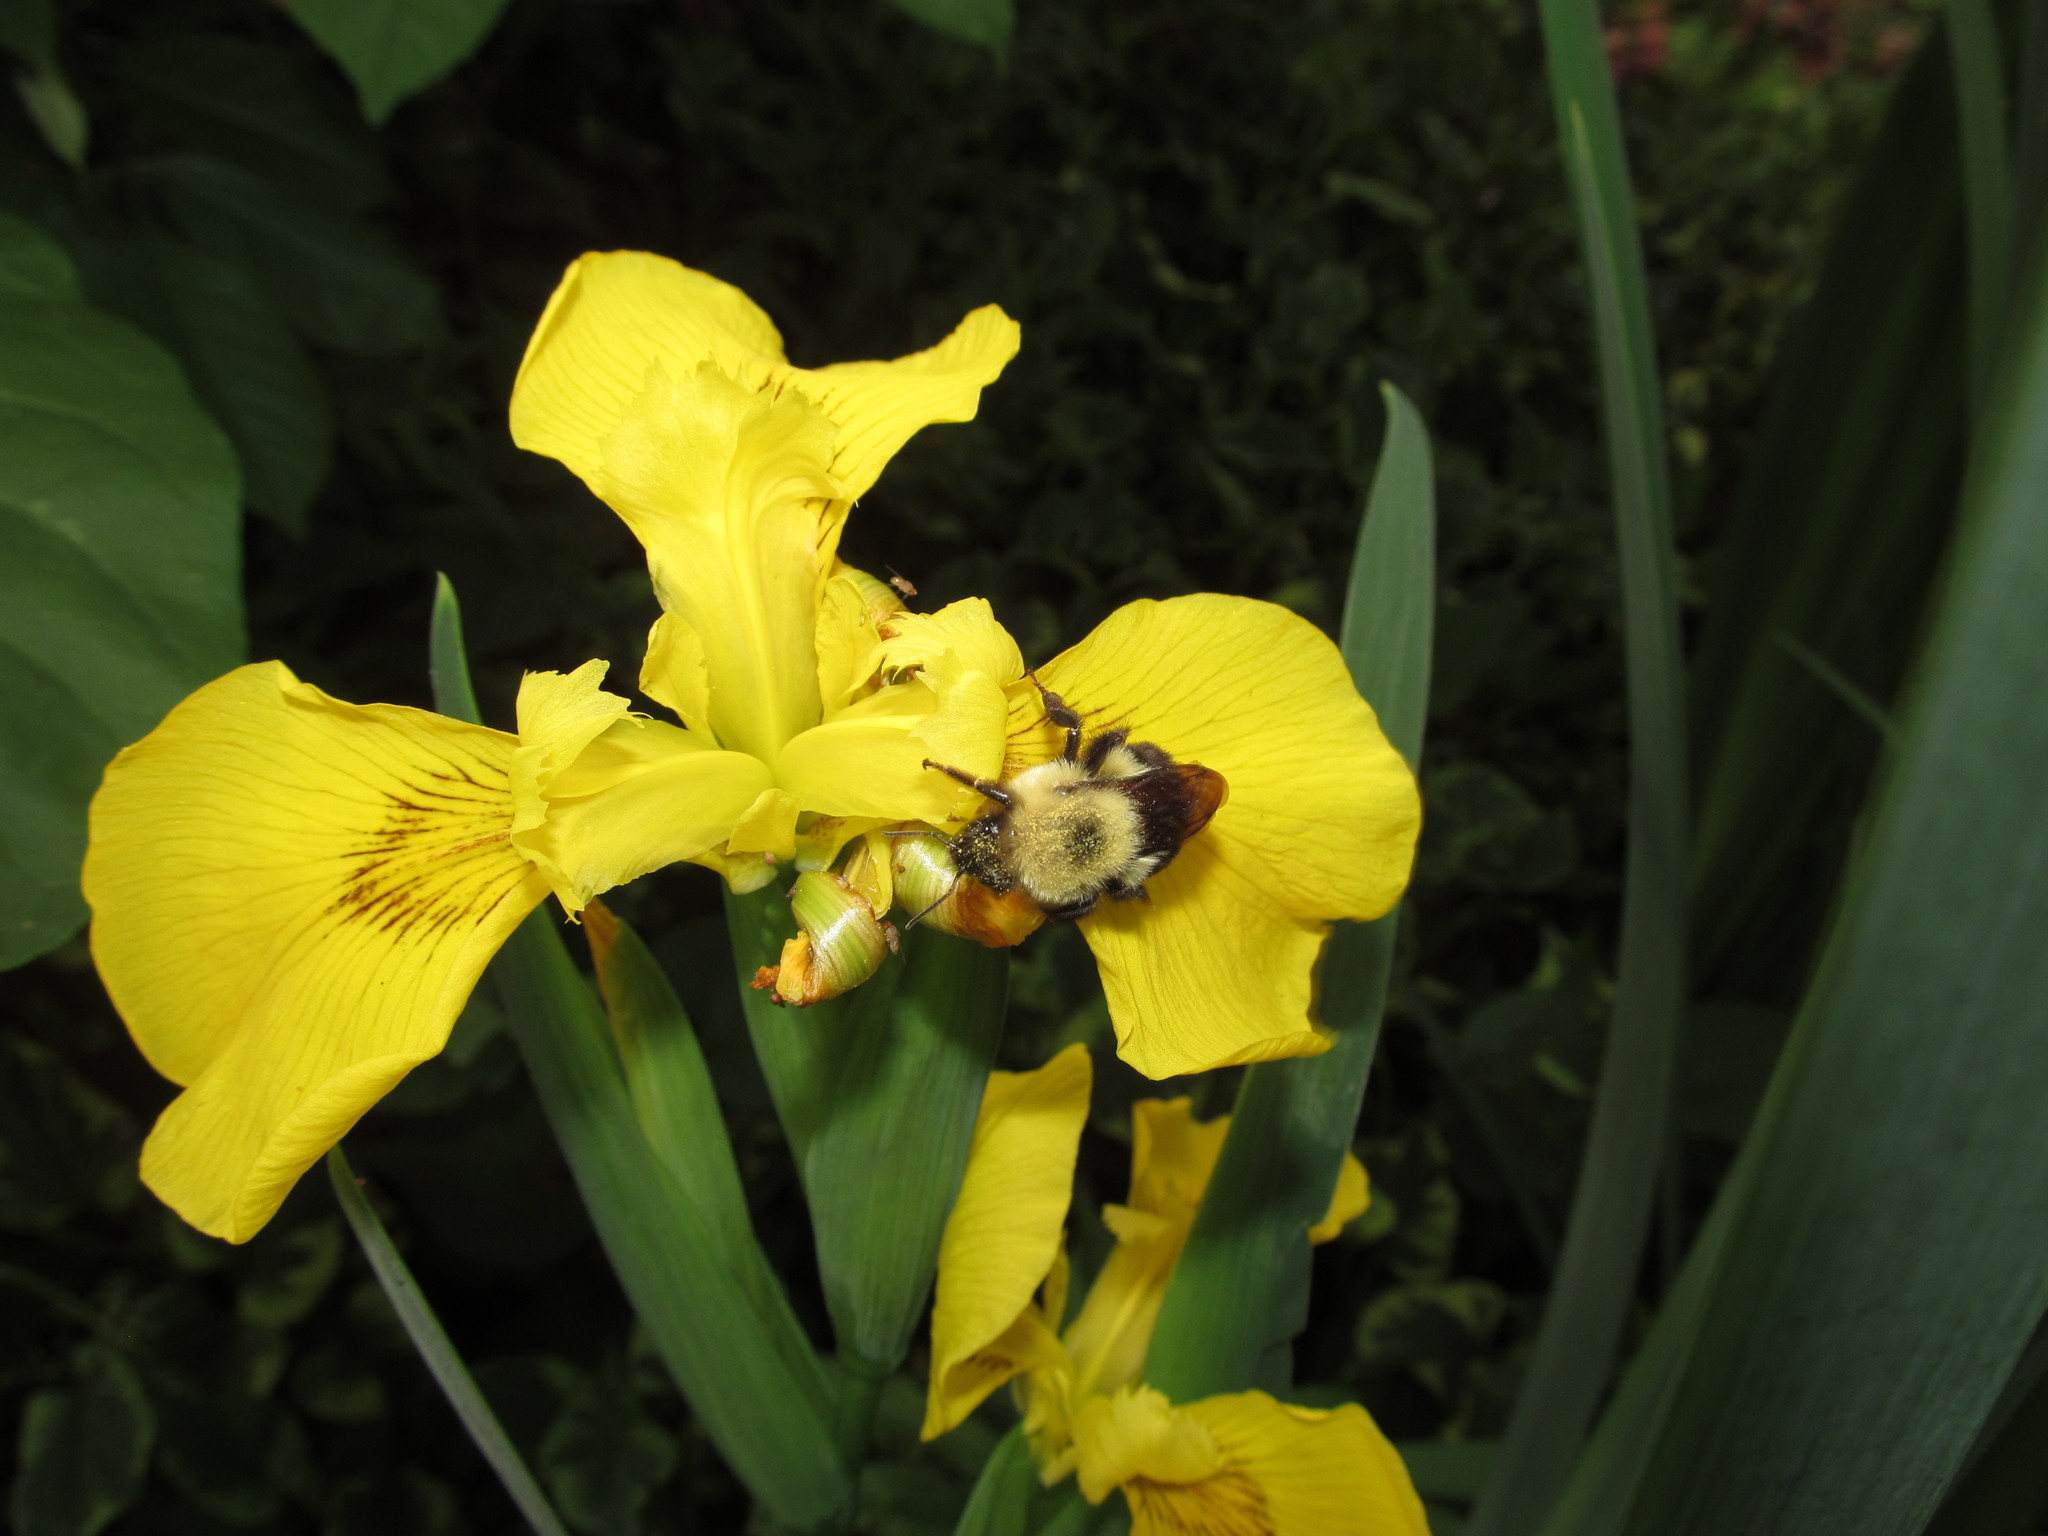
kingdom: Animalia
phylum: Arthropoda
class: Insecta
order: Hymenoptera
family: Apidae
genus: Bombus
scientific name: Bombus bimaculatus
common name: Two-spotted bumble bee
